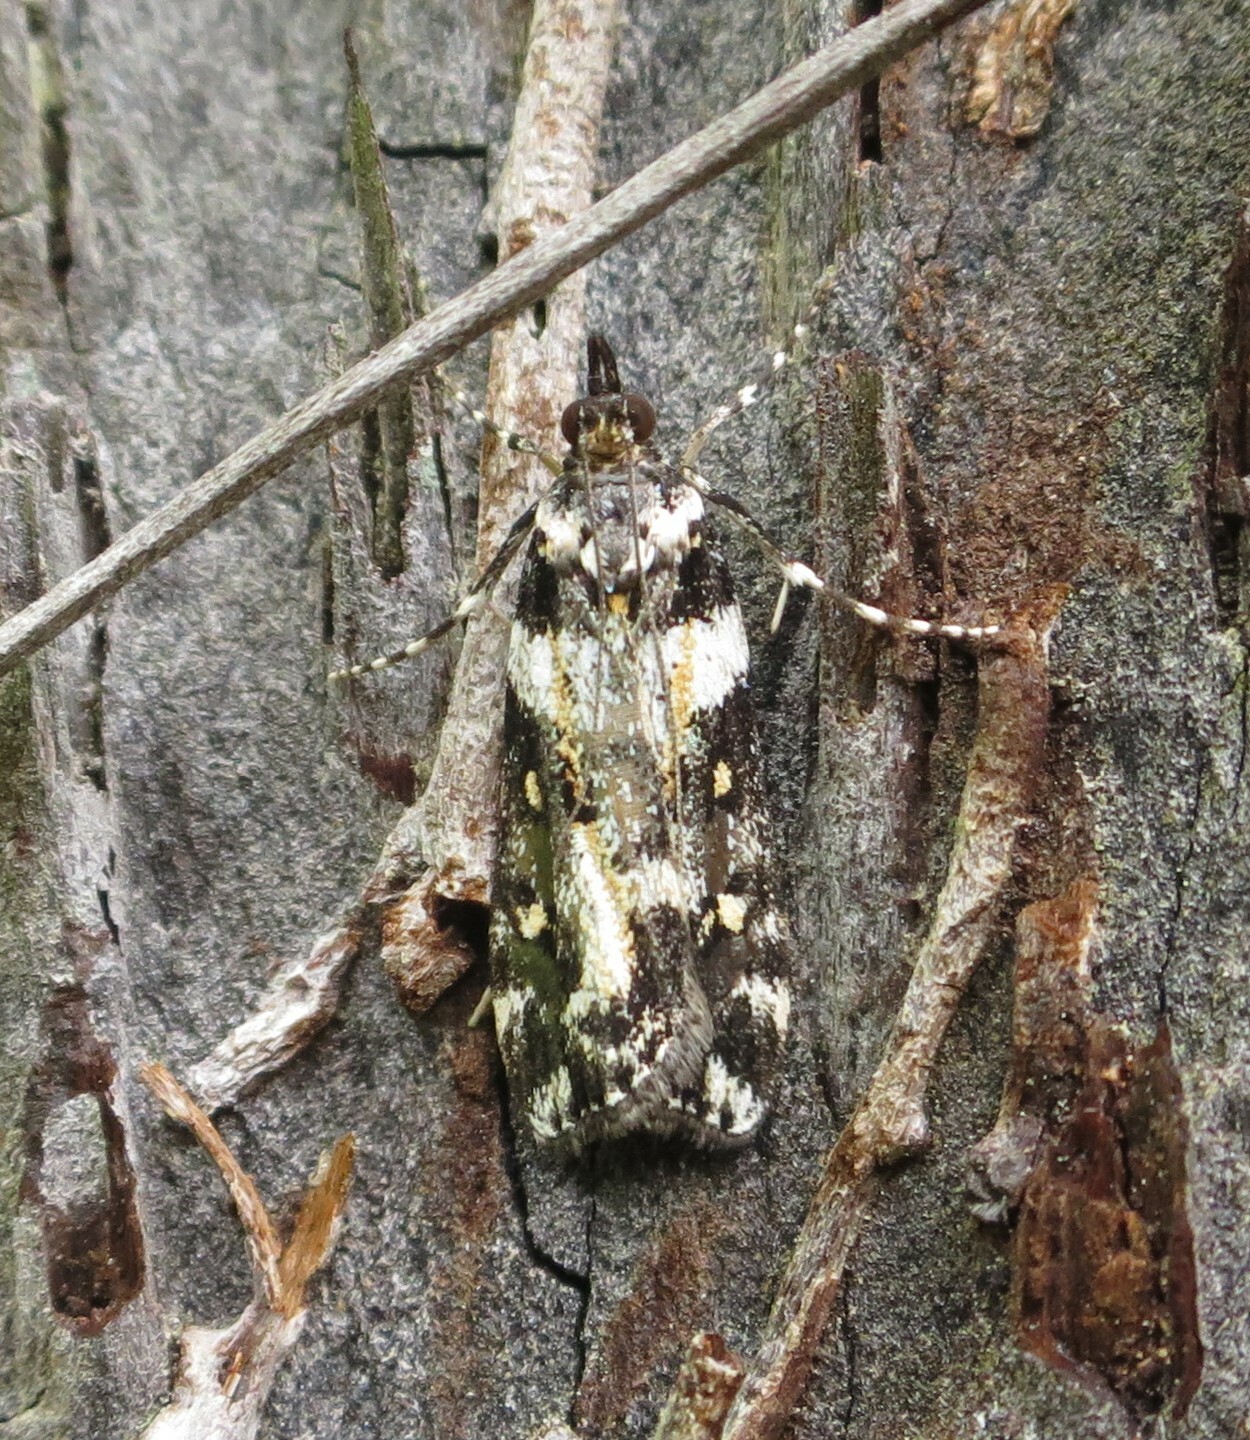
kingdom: Animalia
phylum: Arthropoda
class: Insecta
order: Lepidoptera
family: Crambidae
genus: Eudonia
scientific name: Eudonia diphtheralis
